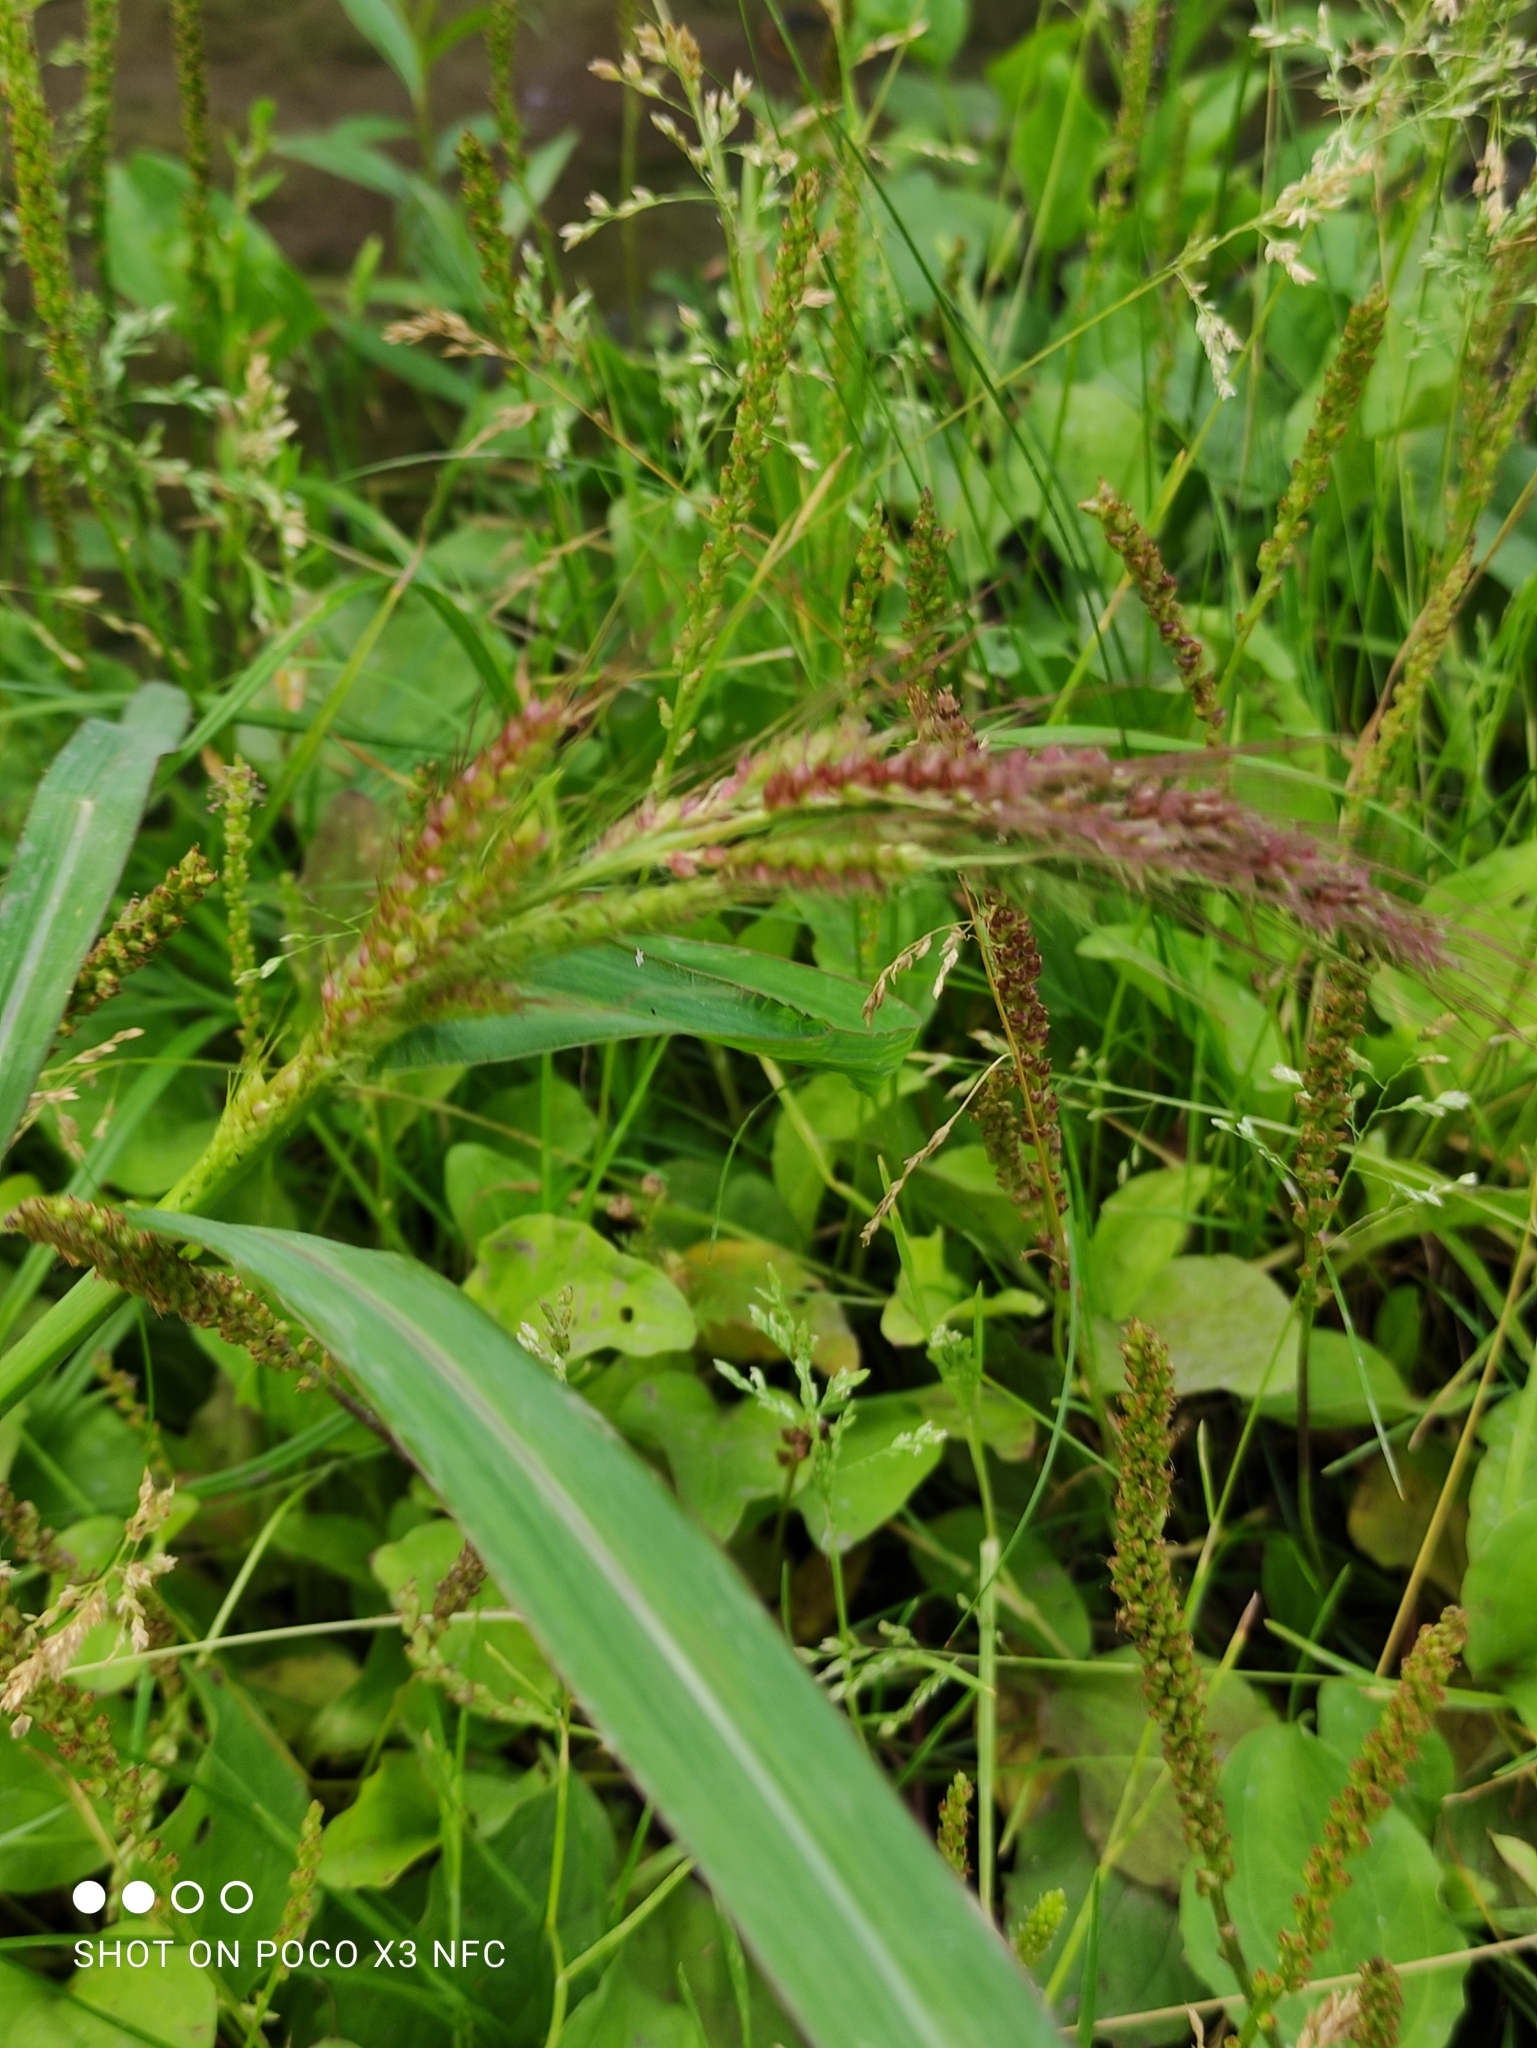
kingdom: Plantae
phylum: Tracheophyta
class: Liliopsida
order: Poales
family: Poaceae
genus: Echinochloa
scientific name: Echinochloa crus-galli
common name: Cockspur
